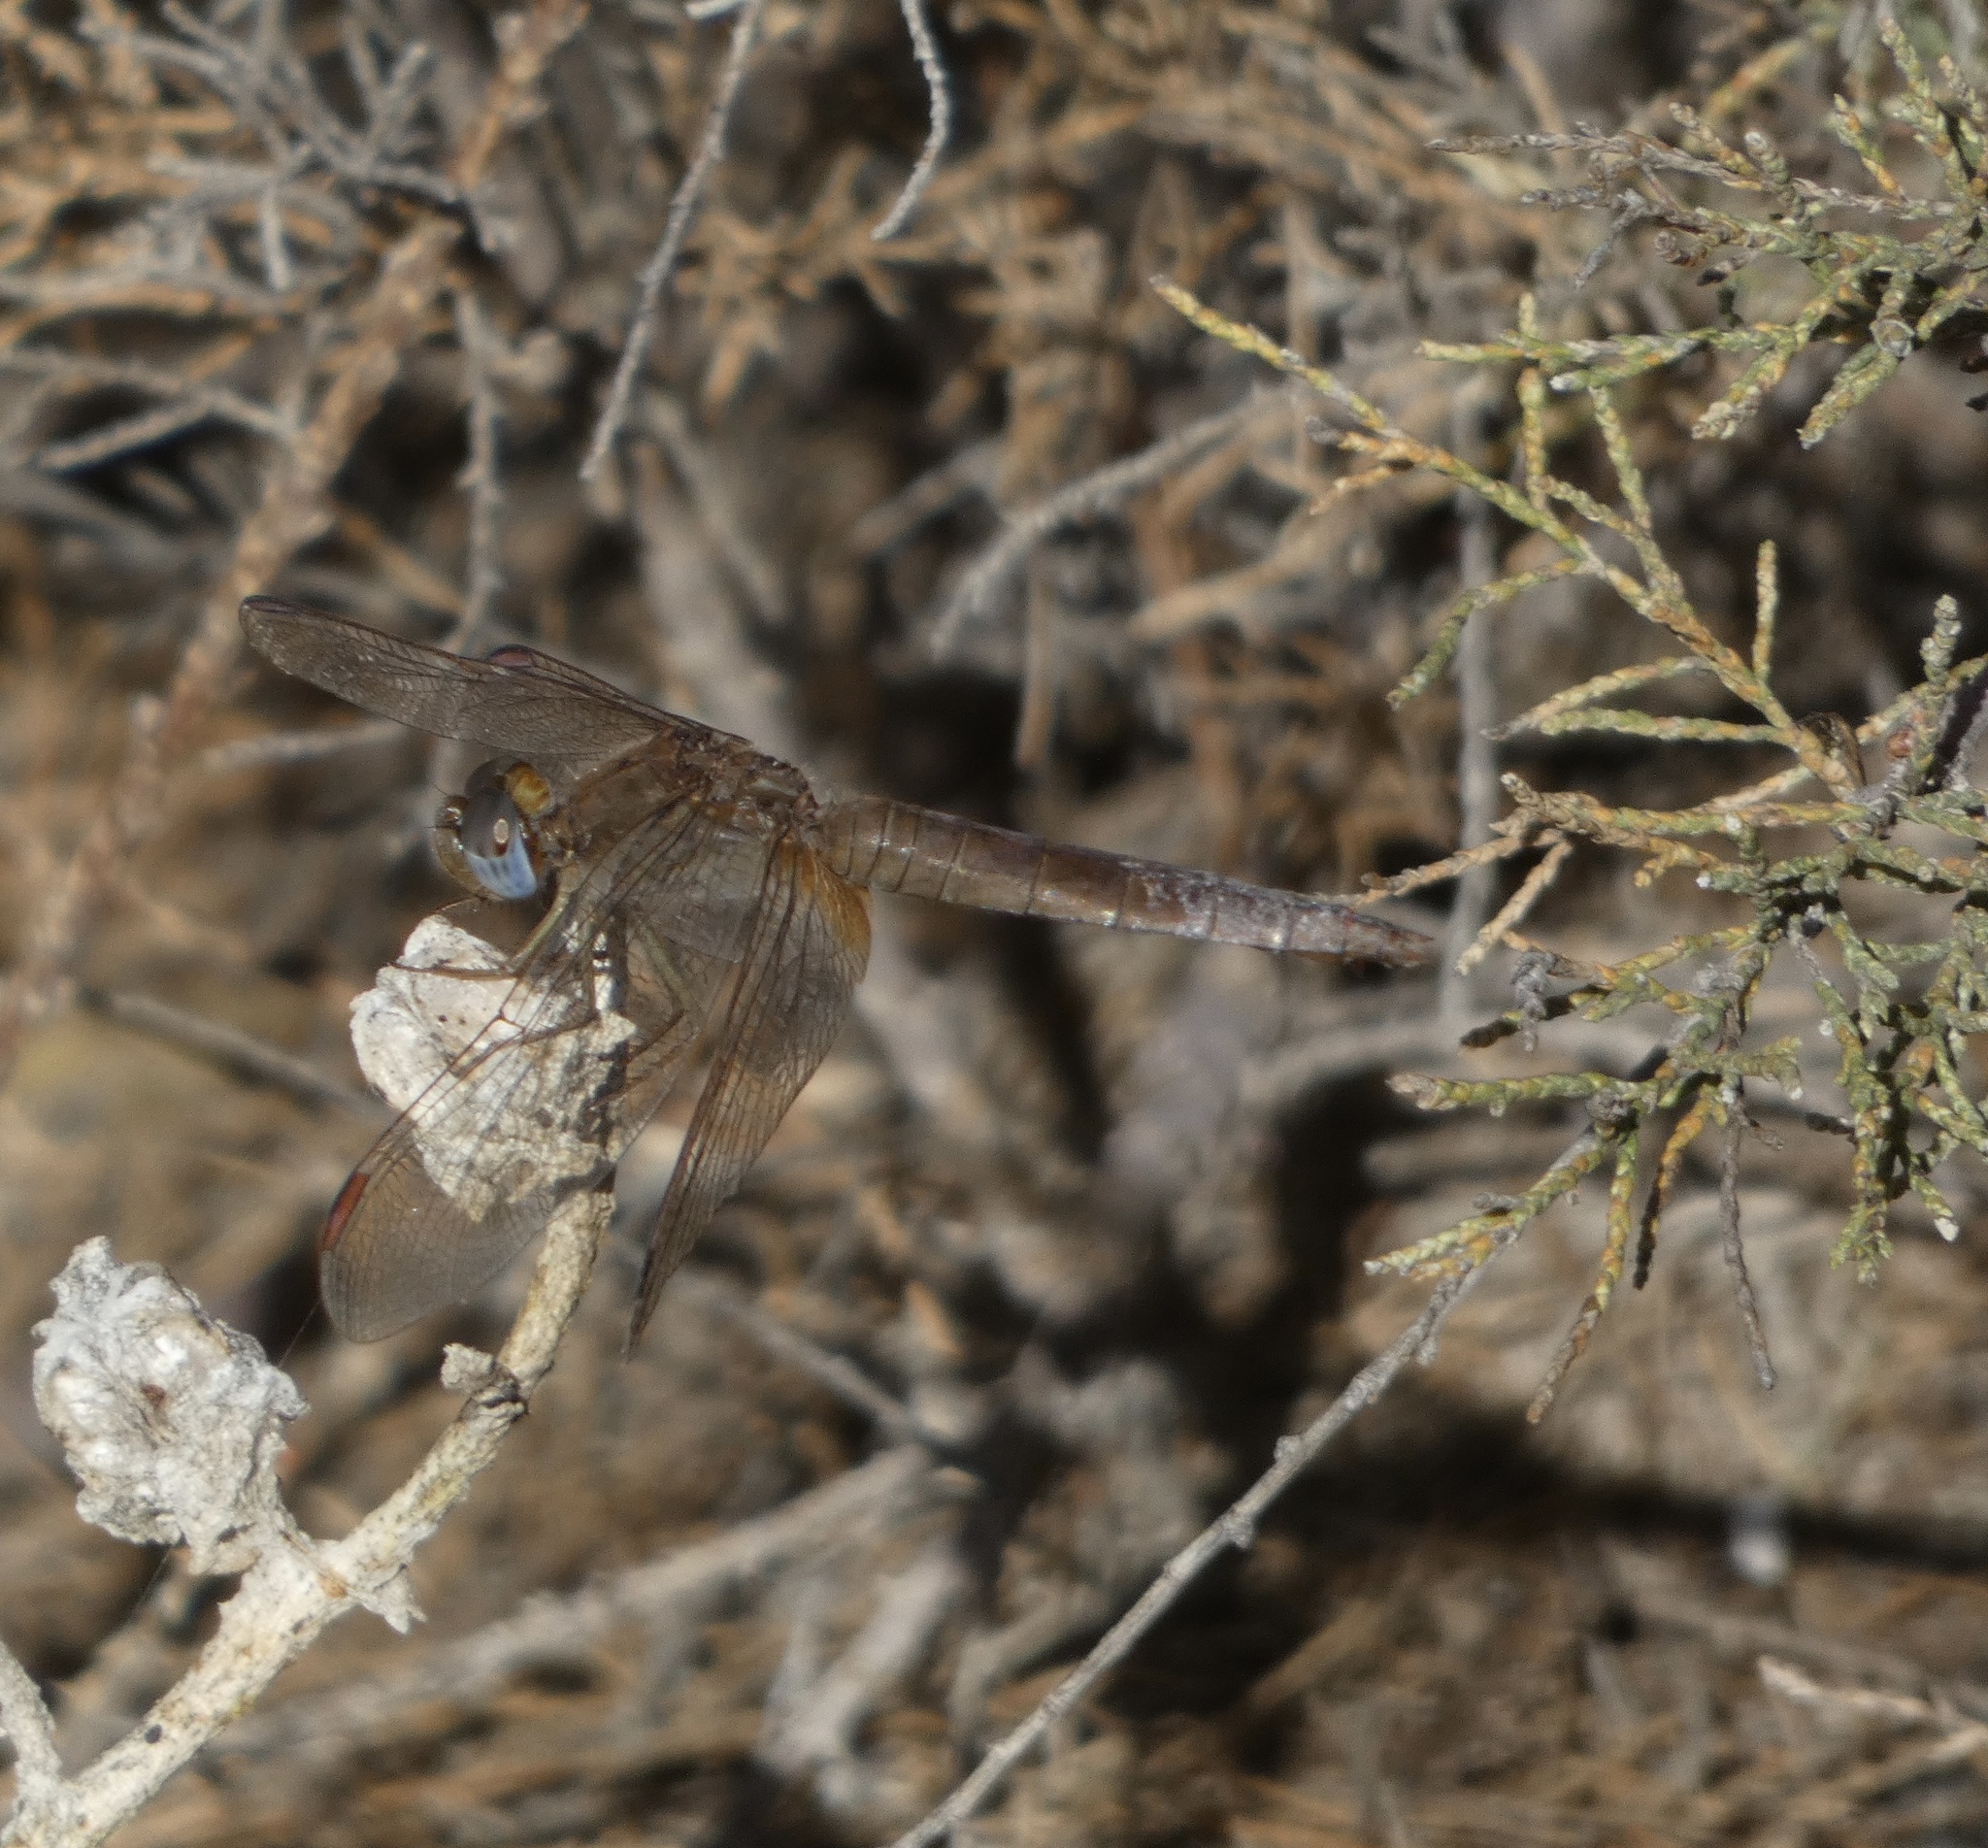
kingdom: Animalia
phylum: Arthropoda
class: Insecta
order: Odonata
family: Libellulidae
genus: Crocothemis
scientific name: Crocothemis erythraea
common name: Scarlet dragonfly
